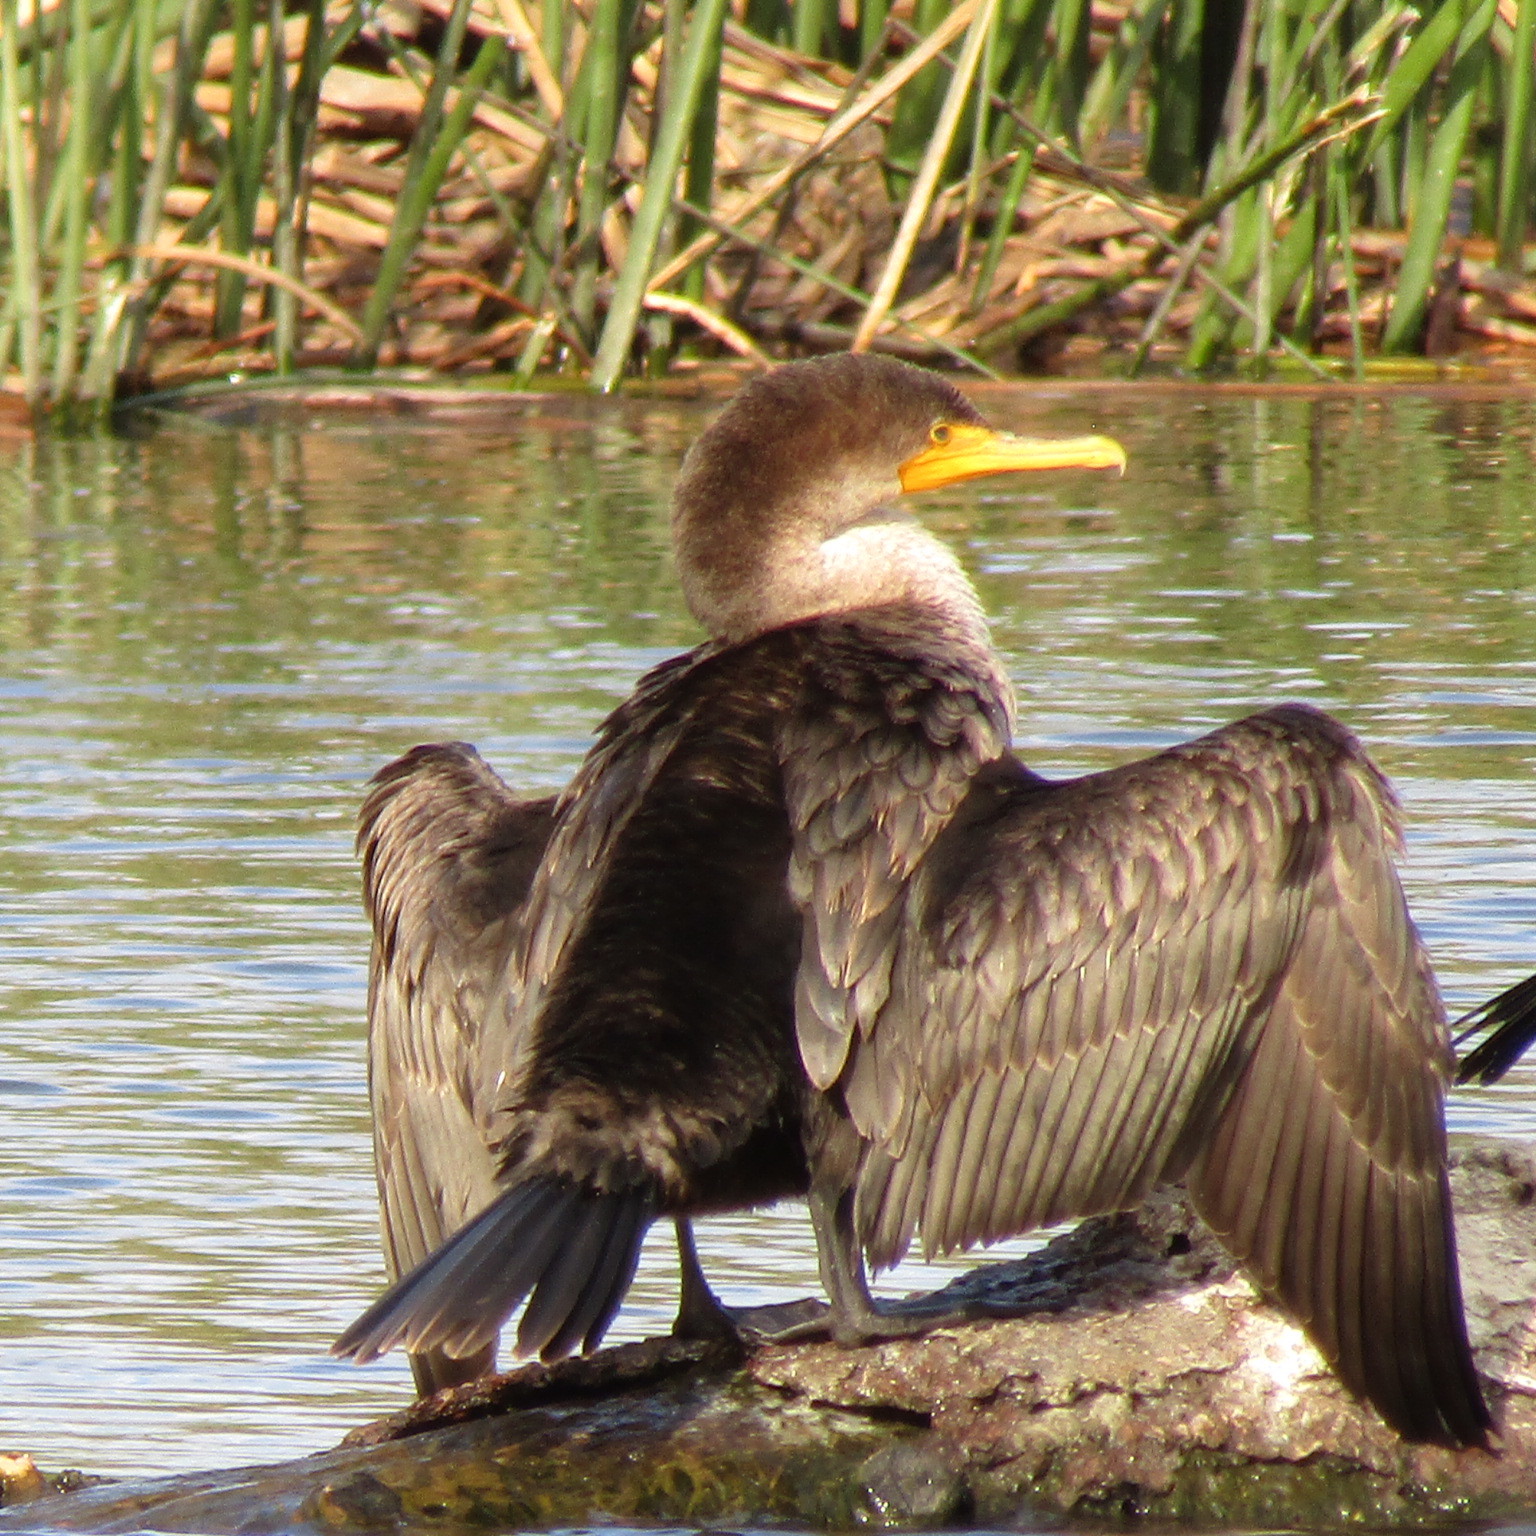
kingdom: Animalia
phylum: Chordata
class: Aves
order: Suliformes
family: Phalacrocoracidae
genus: Phalacrocorax
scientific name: Phalacrocorax auritus
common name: Double-crested cormorant
